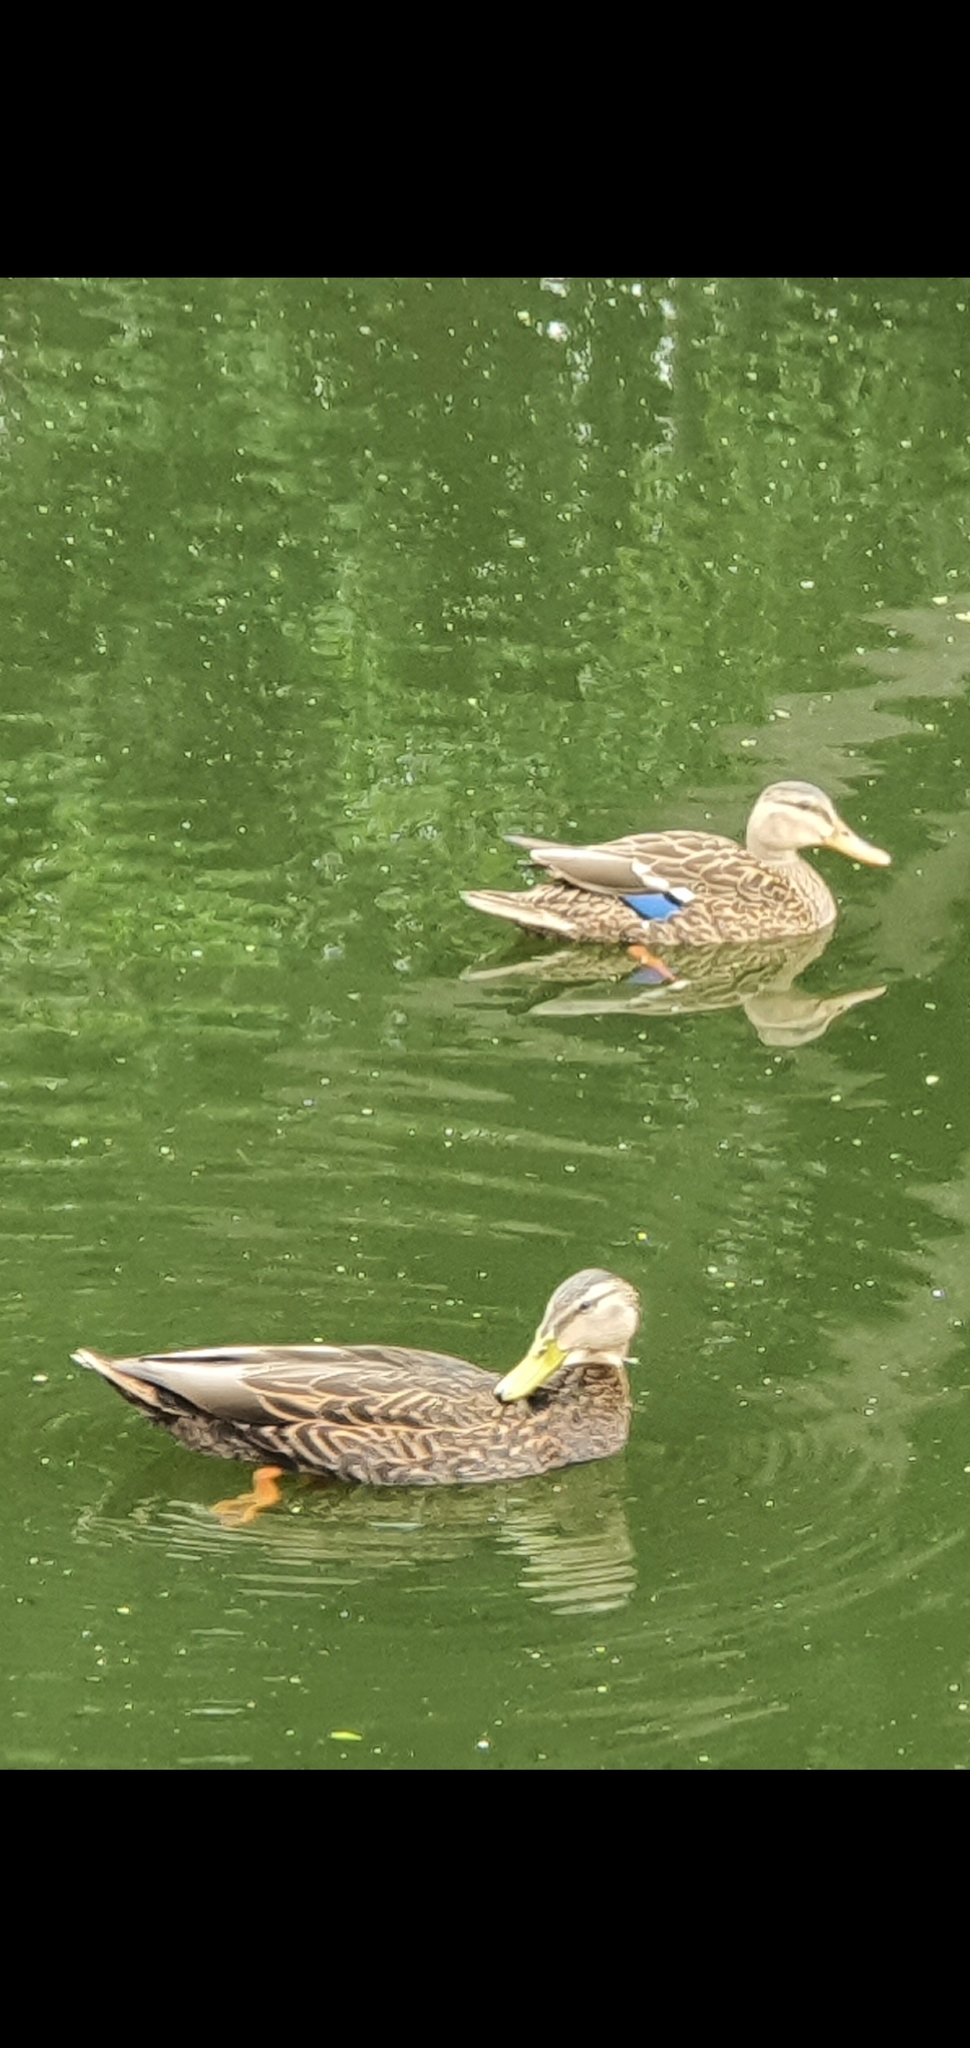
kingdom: Animalia
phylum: Chordata
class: Aves
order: Anseriformes
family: Anatidae
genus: Anas
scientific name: Anas diazi
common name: Mexican duck
